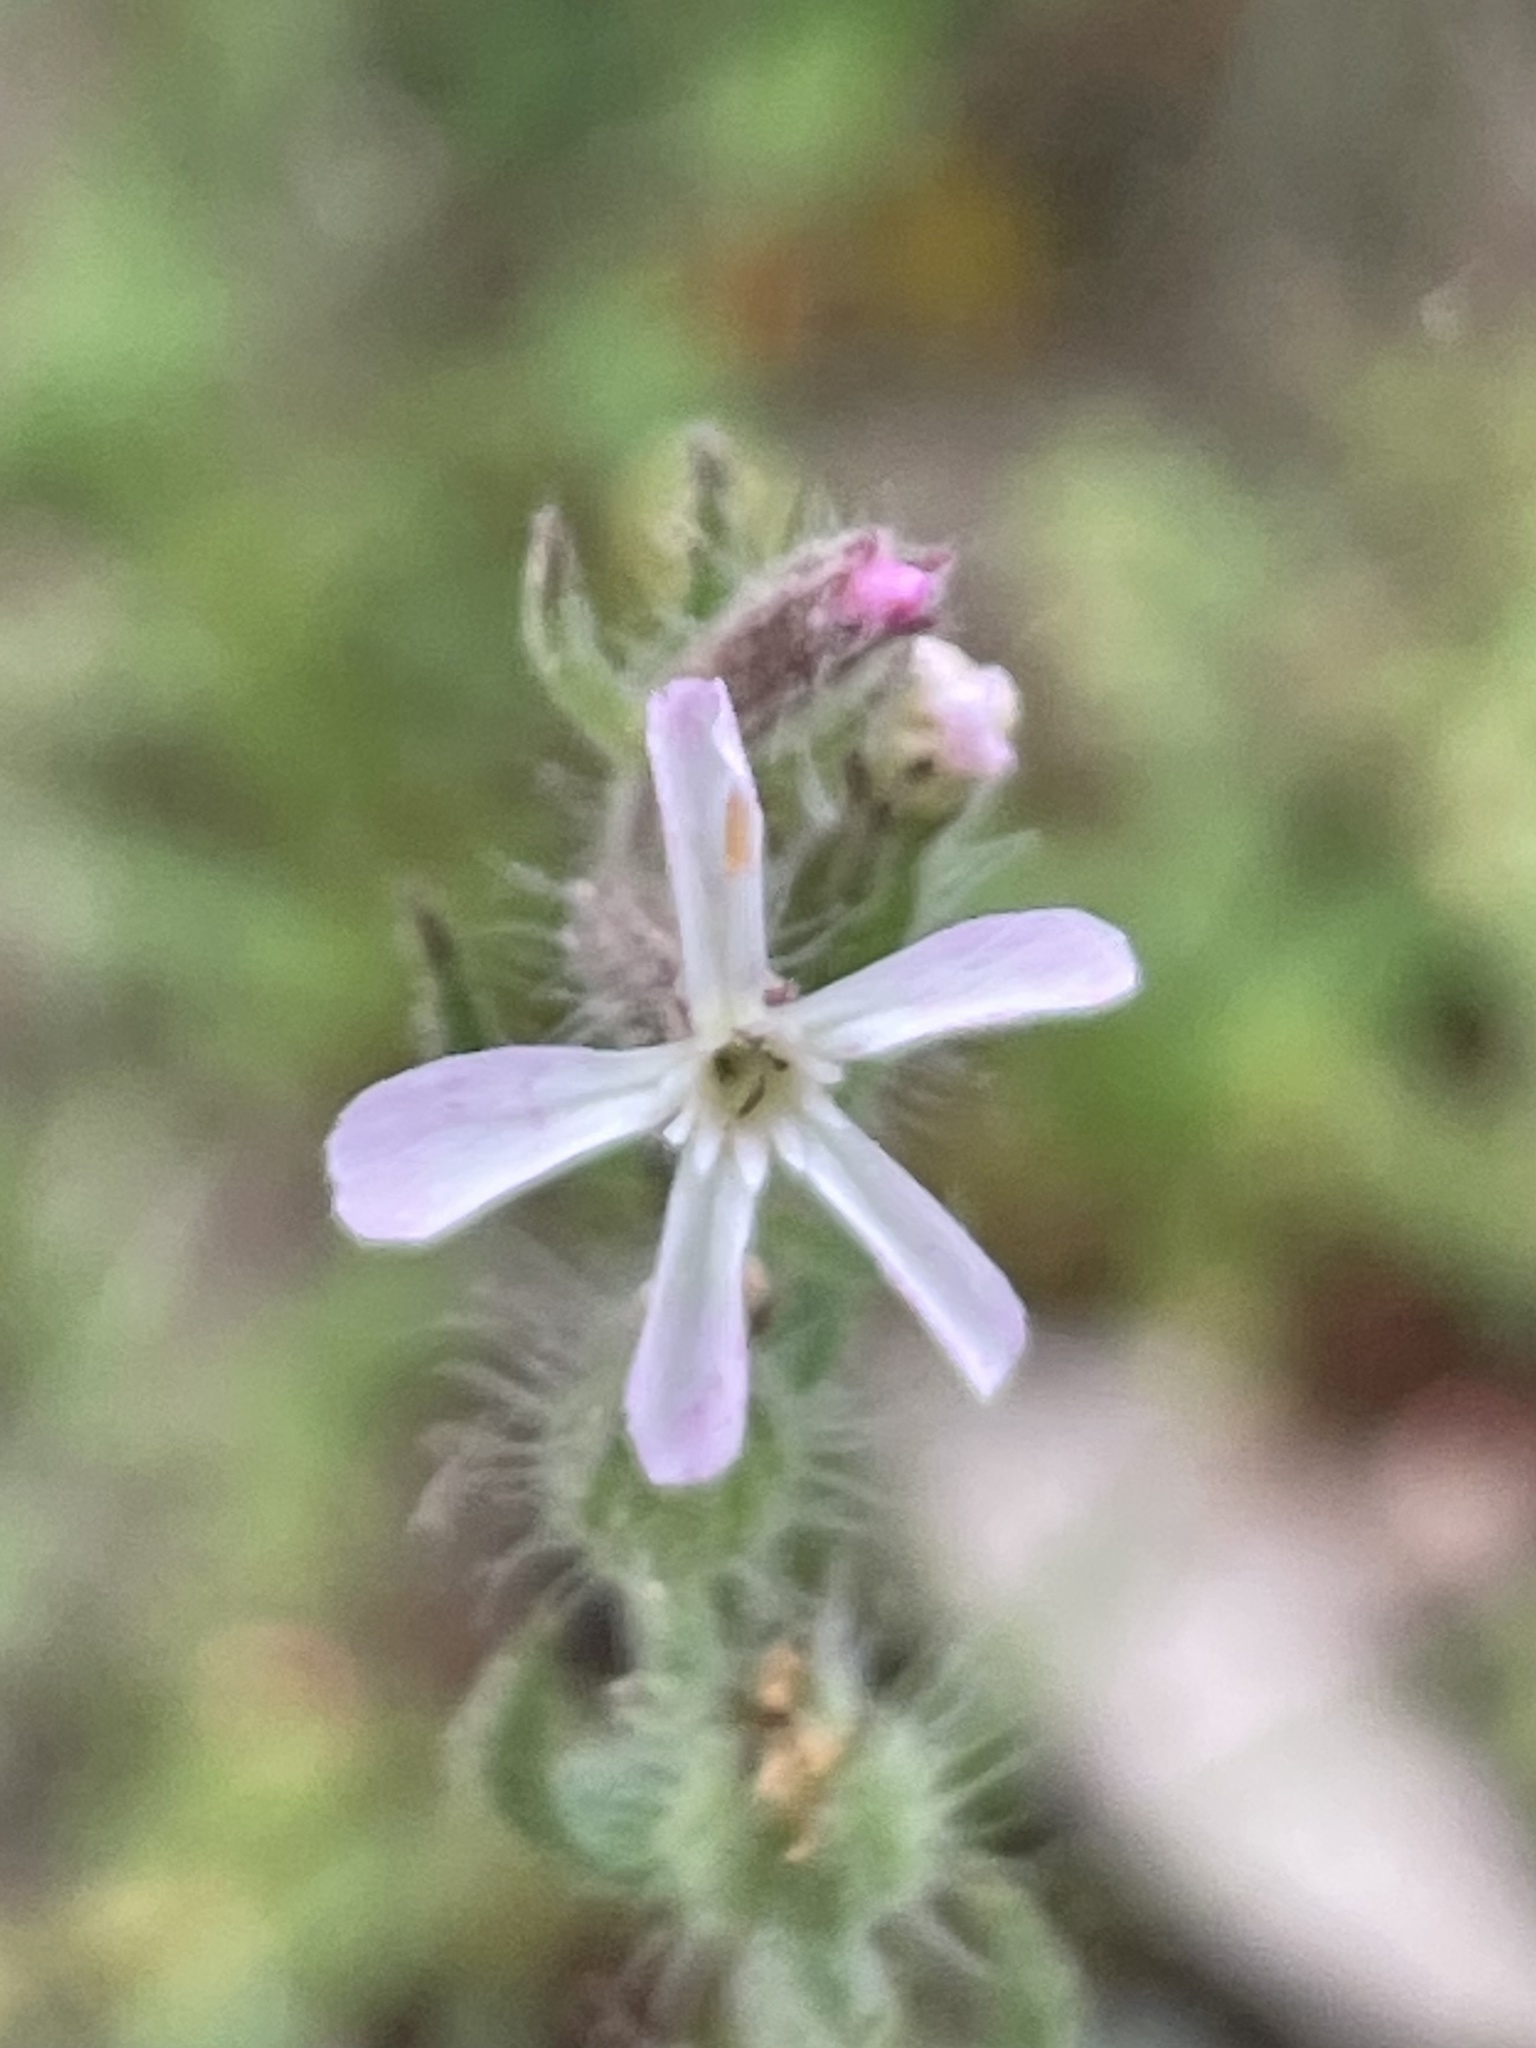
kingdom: Plantae
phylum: Tracheophyta
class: Magnoliopsida
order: Caryophyllales
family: Caryophyllaceae
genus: Silene
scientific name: Silene gallica
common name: Small-flowered catchfly
